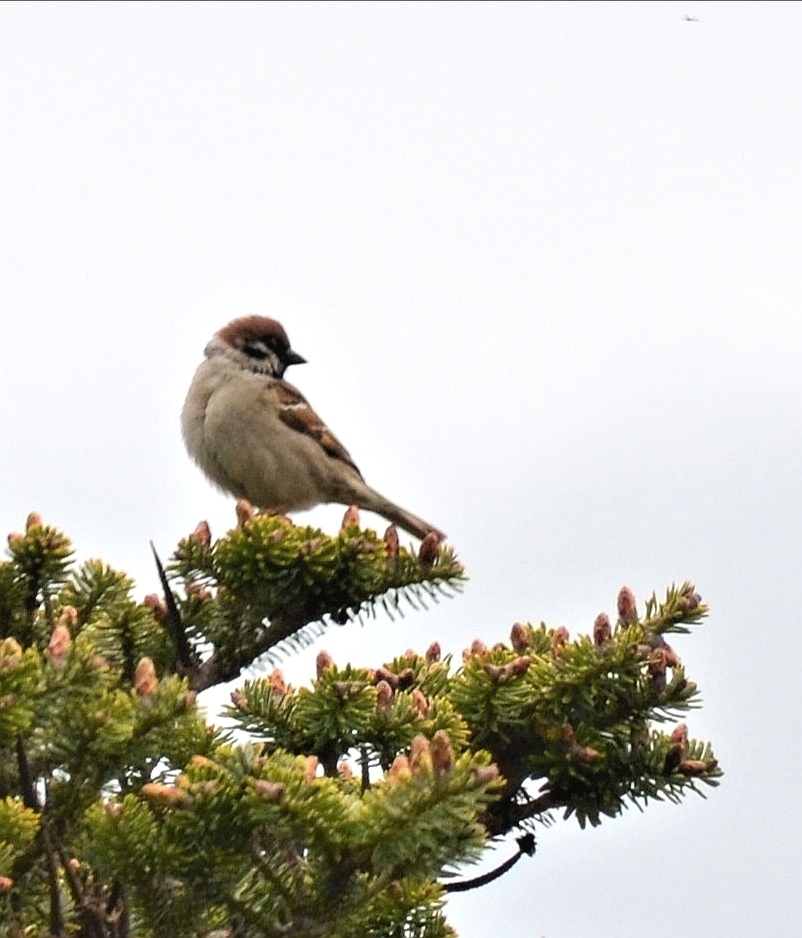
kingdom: Animalia
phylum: Chordata
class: Aves
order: Passeriformes
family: Passeridae
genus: Passer
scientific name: Passer montanus
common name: Eurasian tree sparrow
